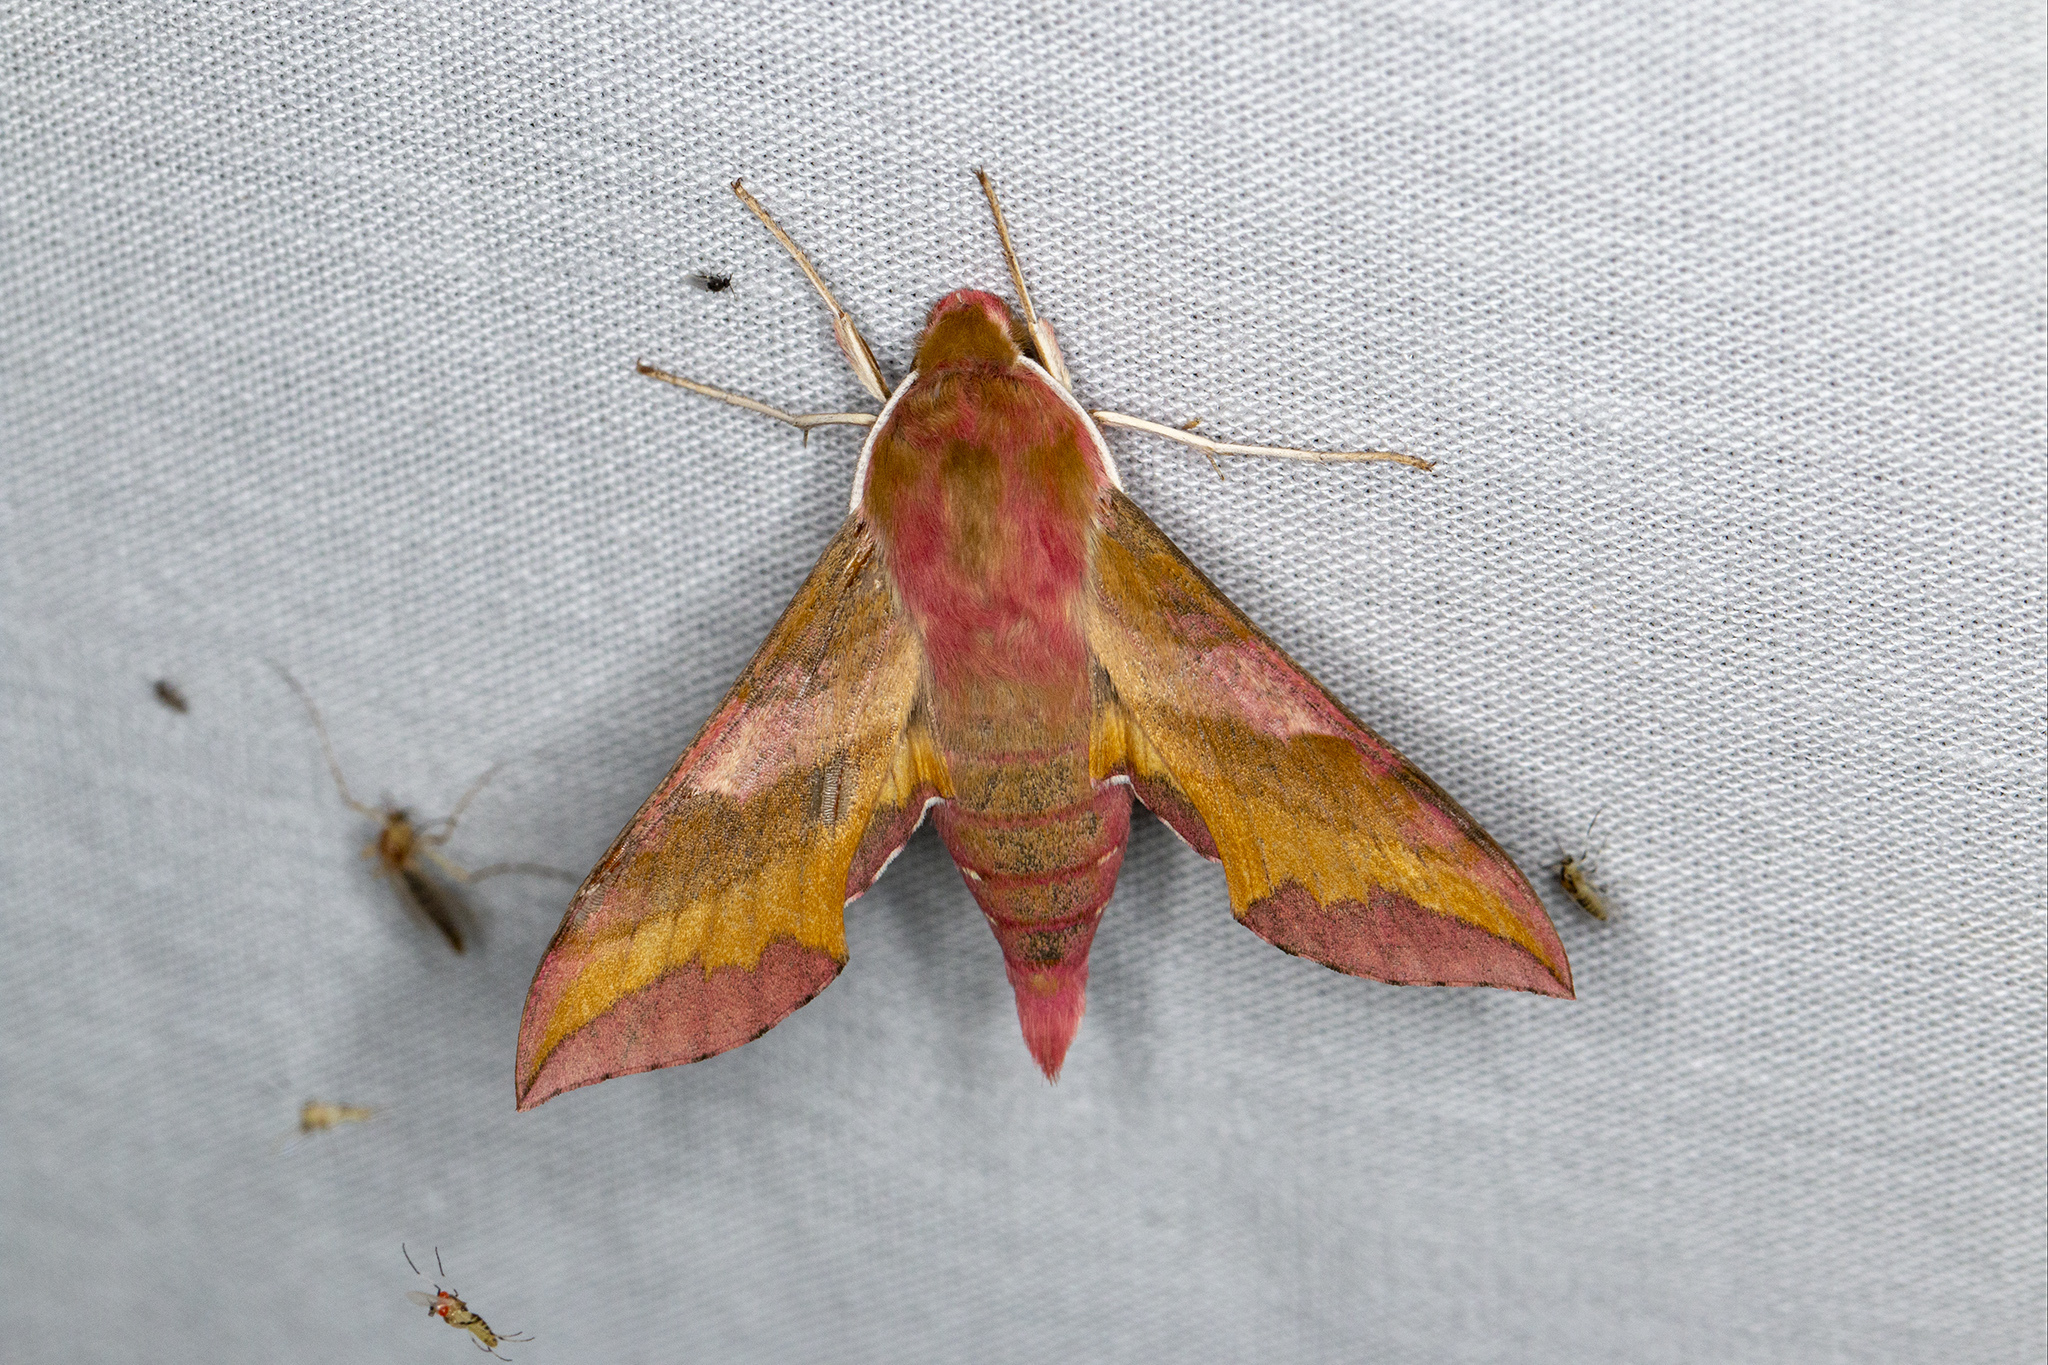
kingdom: Animalia
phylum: Arthropoda
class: Insecta
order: Lepidoptera
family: Sphingidae
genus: Deilephila
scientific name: Deilephila porcellus
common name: Small elephant hawk-moth
